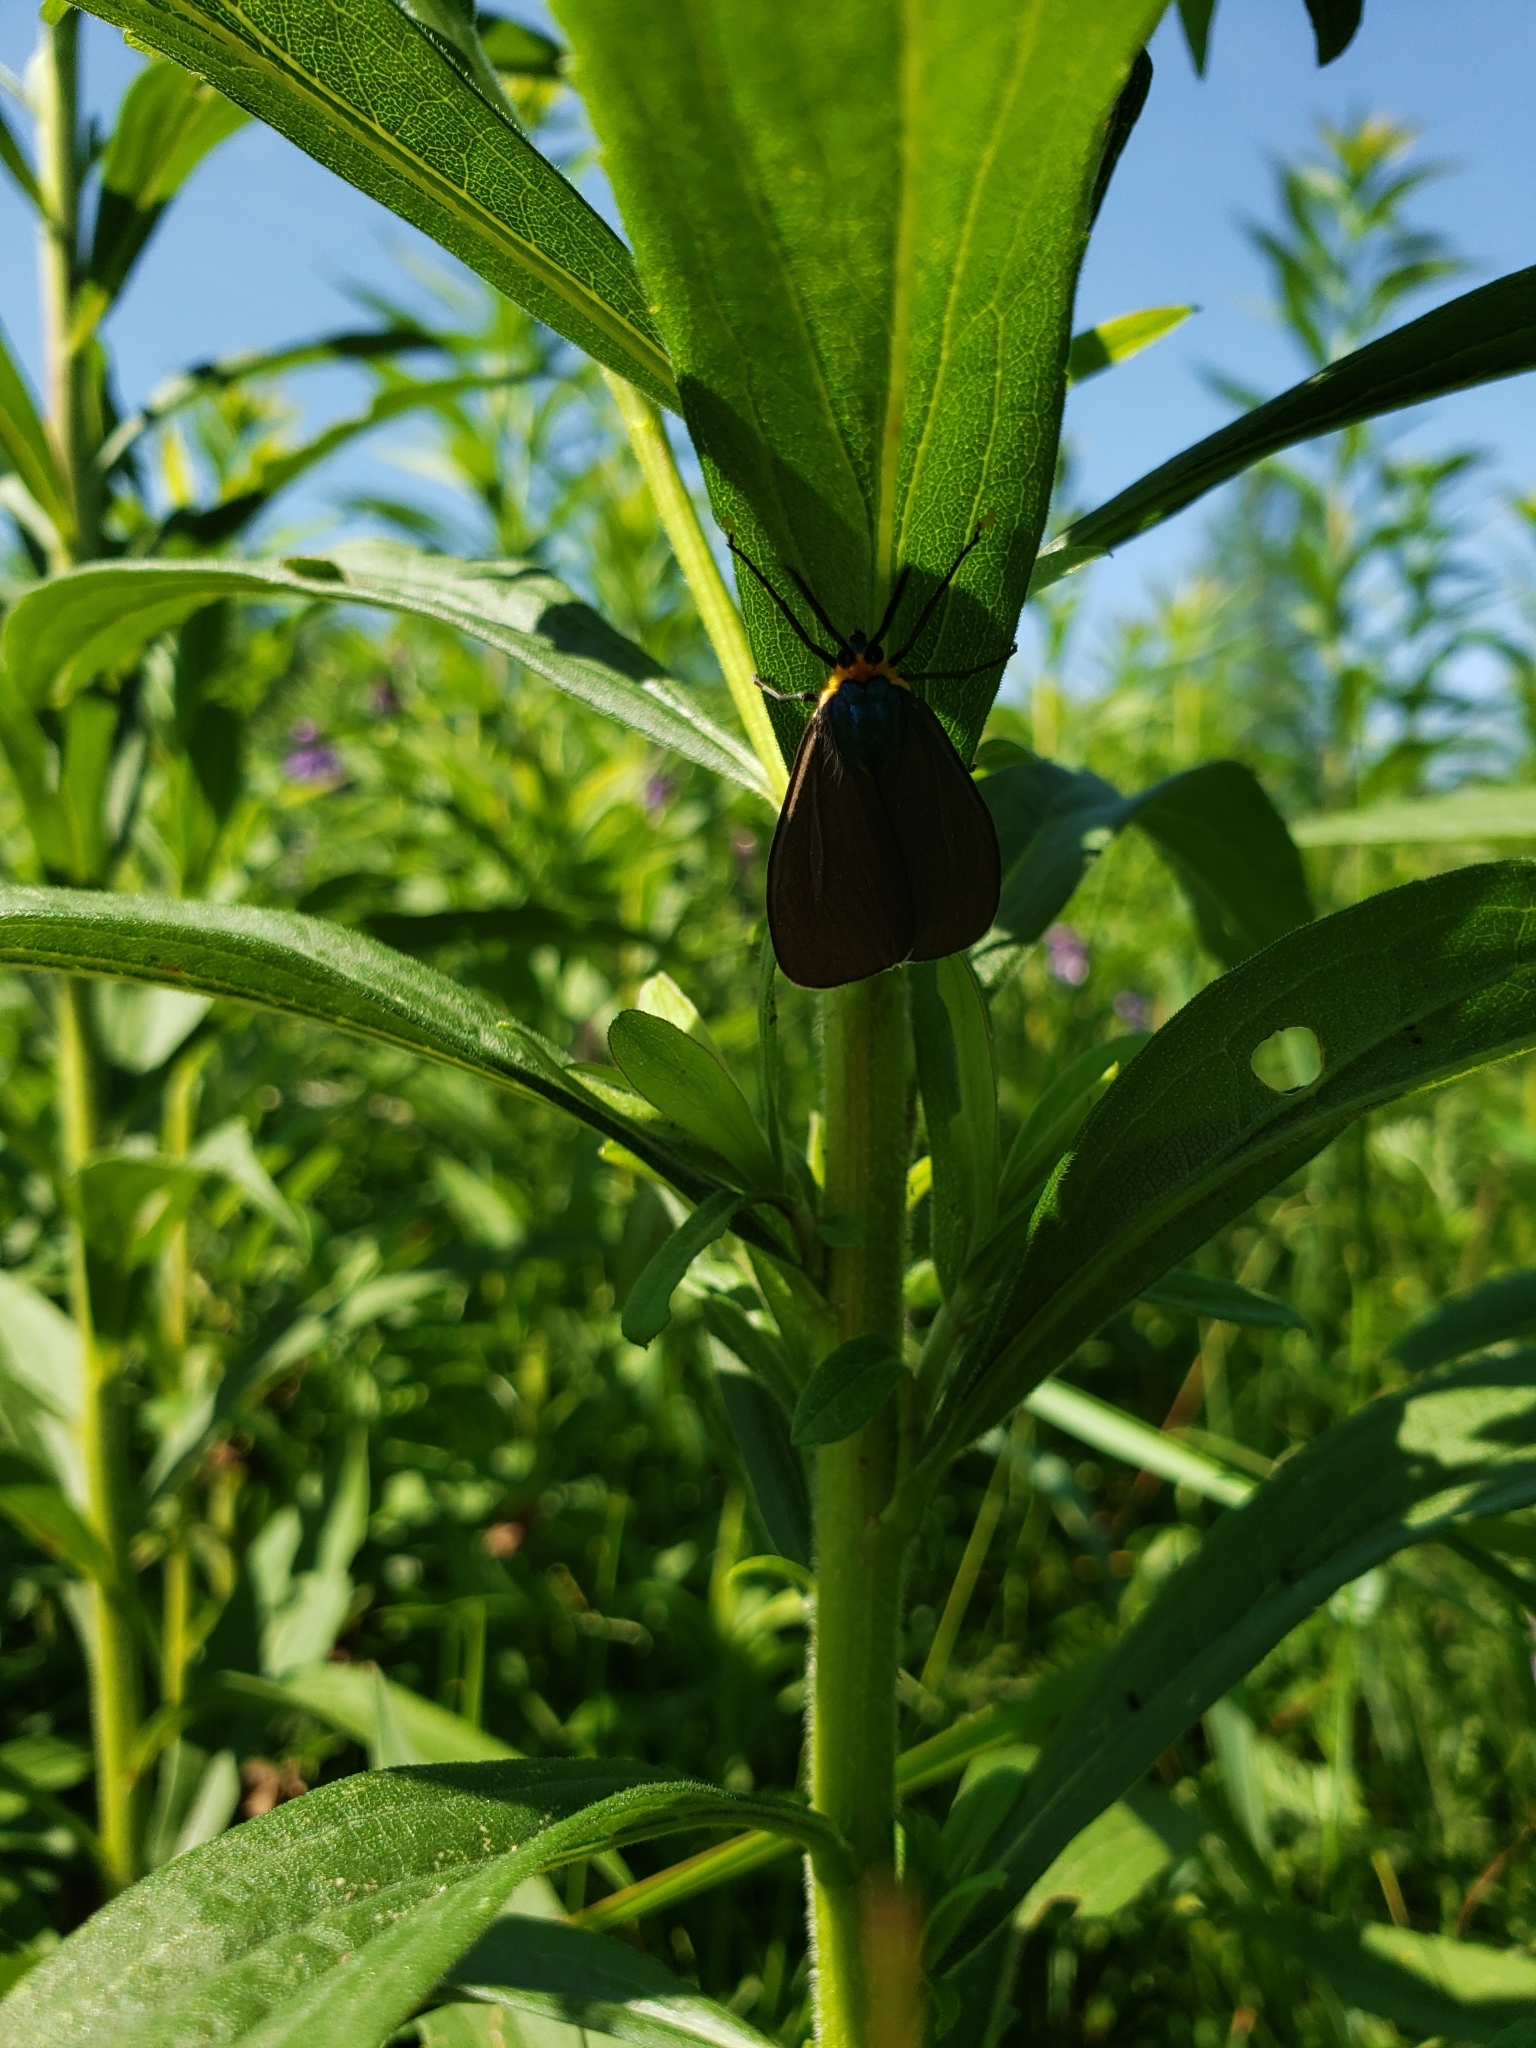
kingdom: Animalia
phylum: Arthropoda
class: Insecta
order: Lepidoptera
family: Erebidae
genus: Ctenucha
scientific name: Ctenucha virginica
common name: Virginia ctenucha moth
